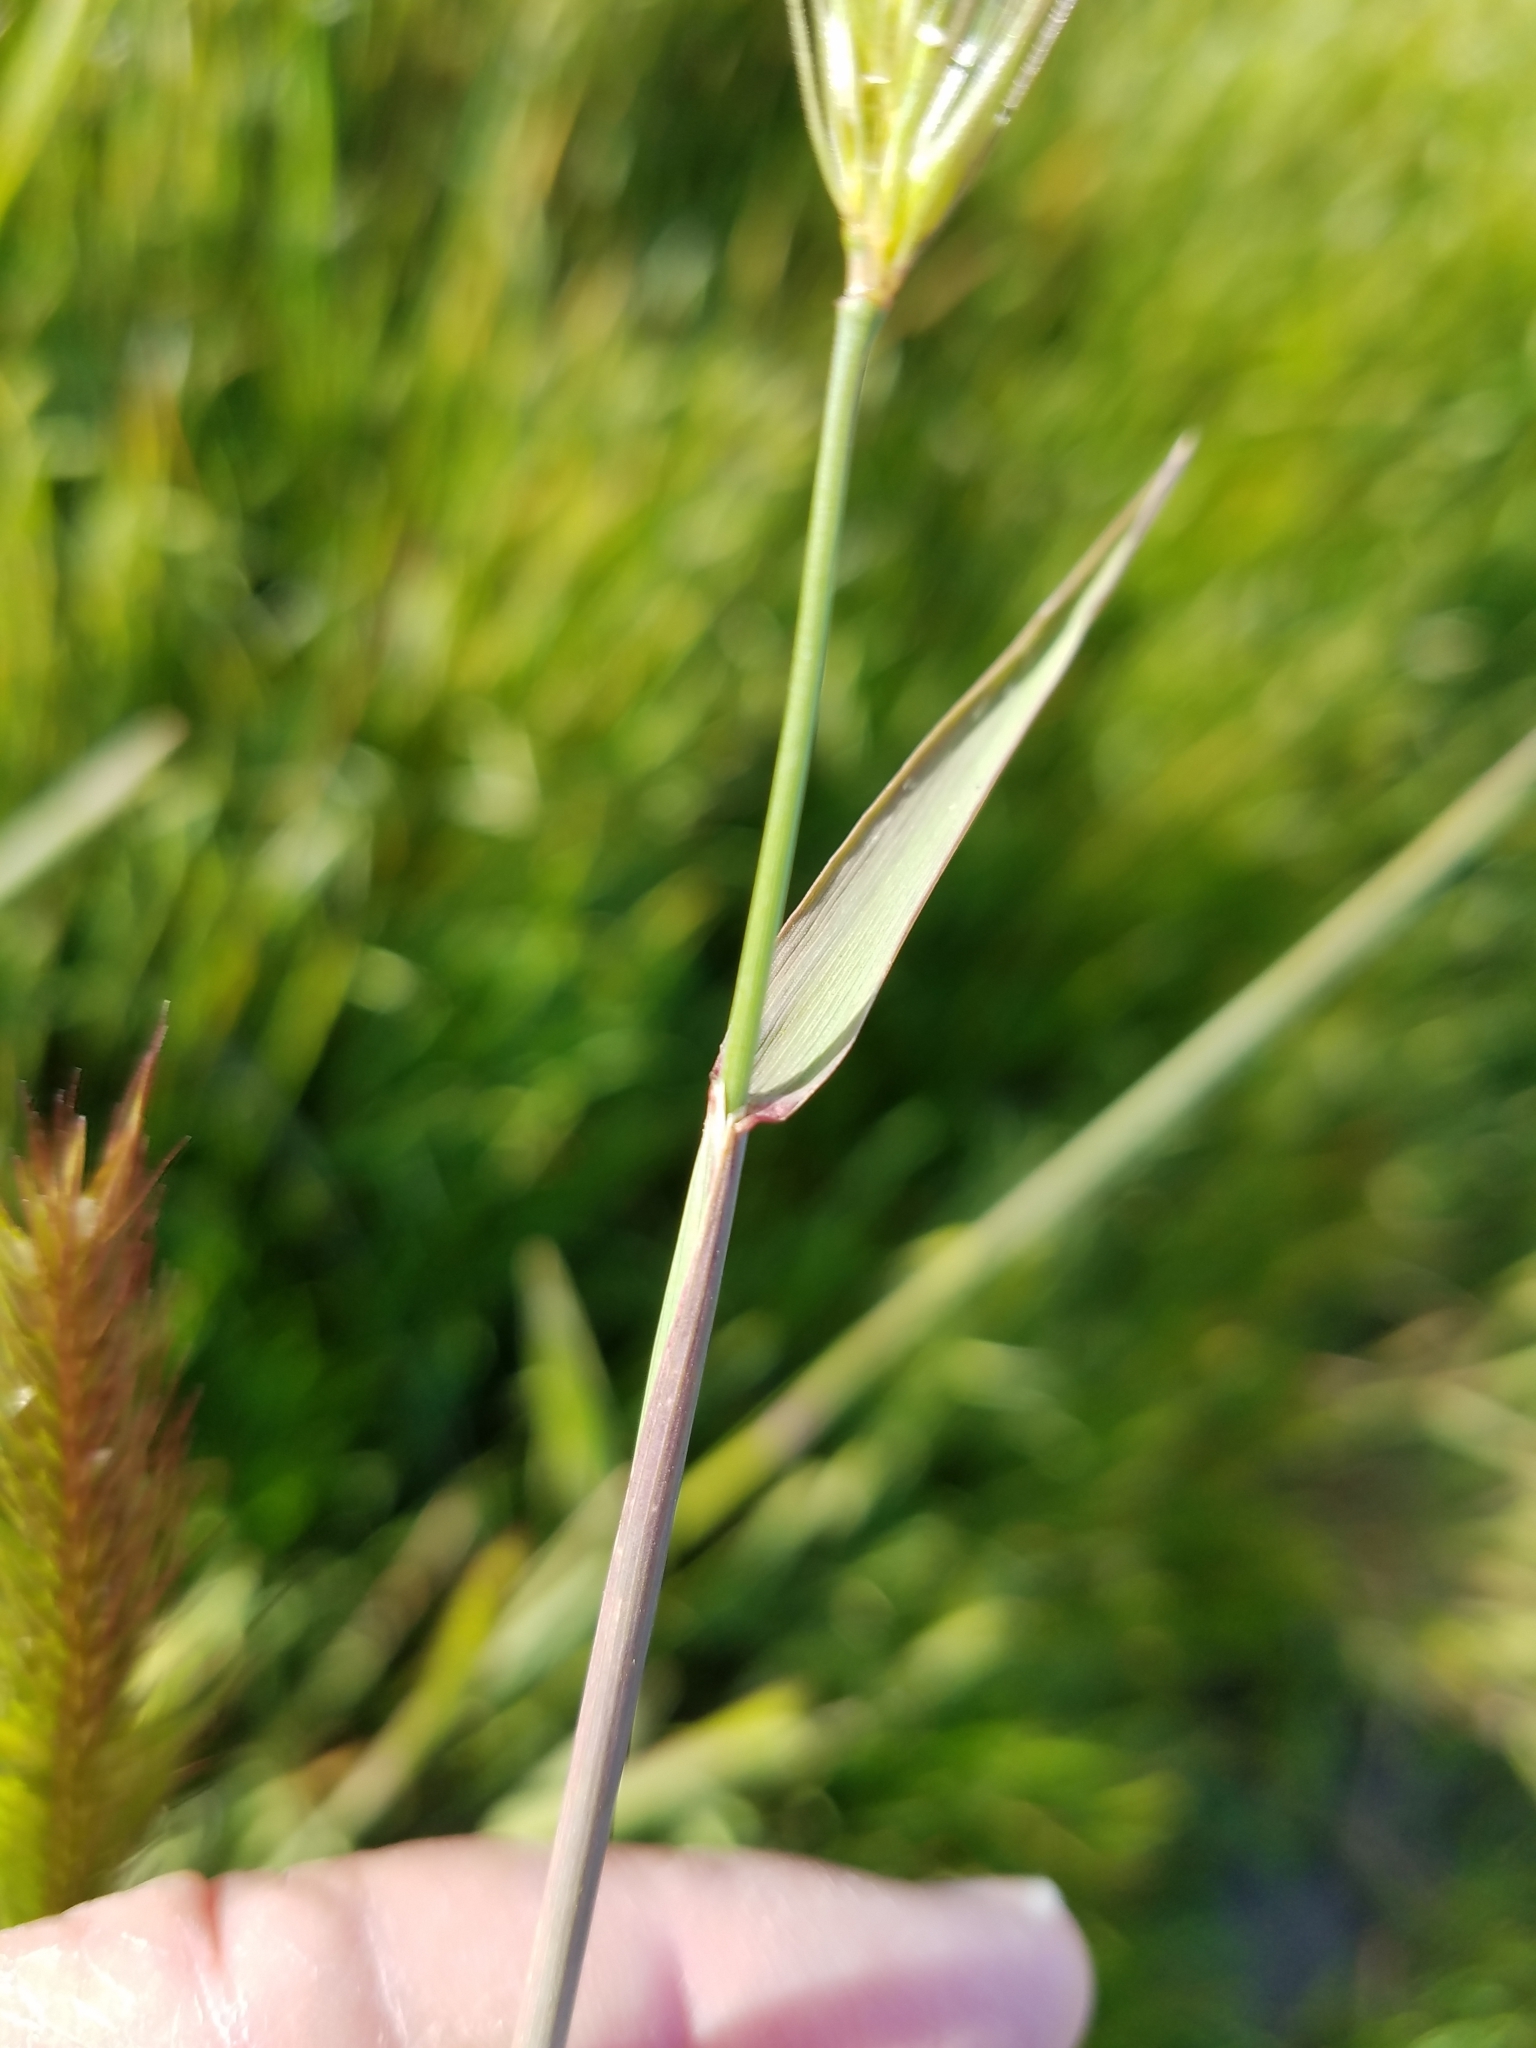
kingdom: Plantae
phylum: Tracheophyta
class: Liliopsida
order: Poales
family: Poaceae
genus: Hordeum
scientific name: Hordeum brachyantherum
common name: Meadow barley
